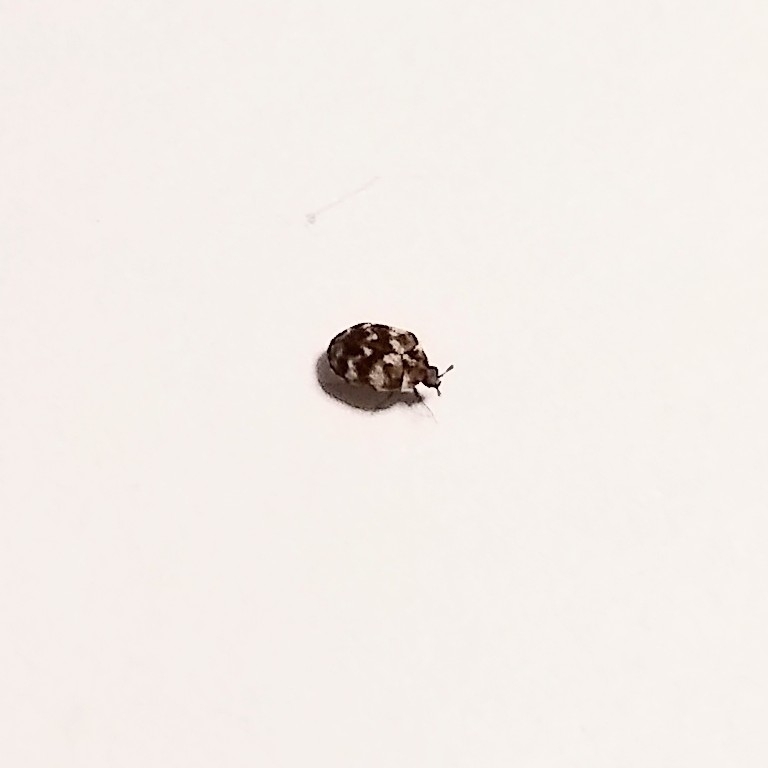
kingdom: Animalia
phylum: Arthropoda
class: Insecta
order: Coleoptera
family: Dermestidae
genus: Anthrenus
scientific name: Anthrenus verbasci
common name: Varied carpet beetle
